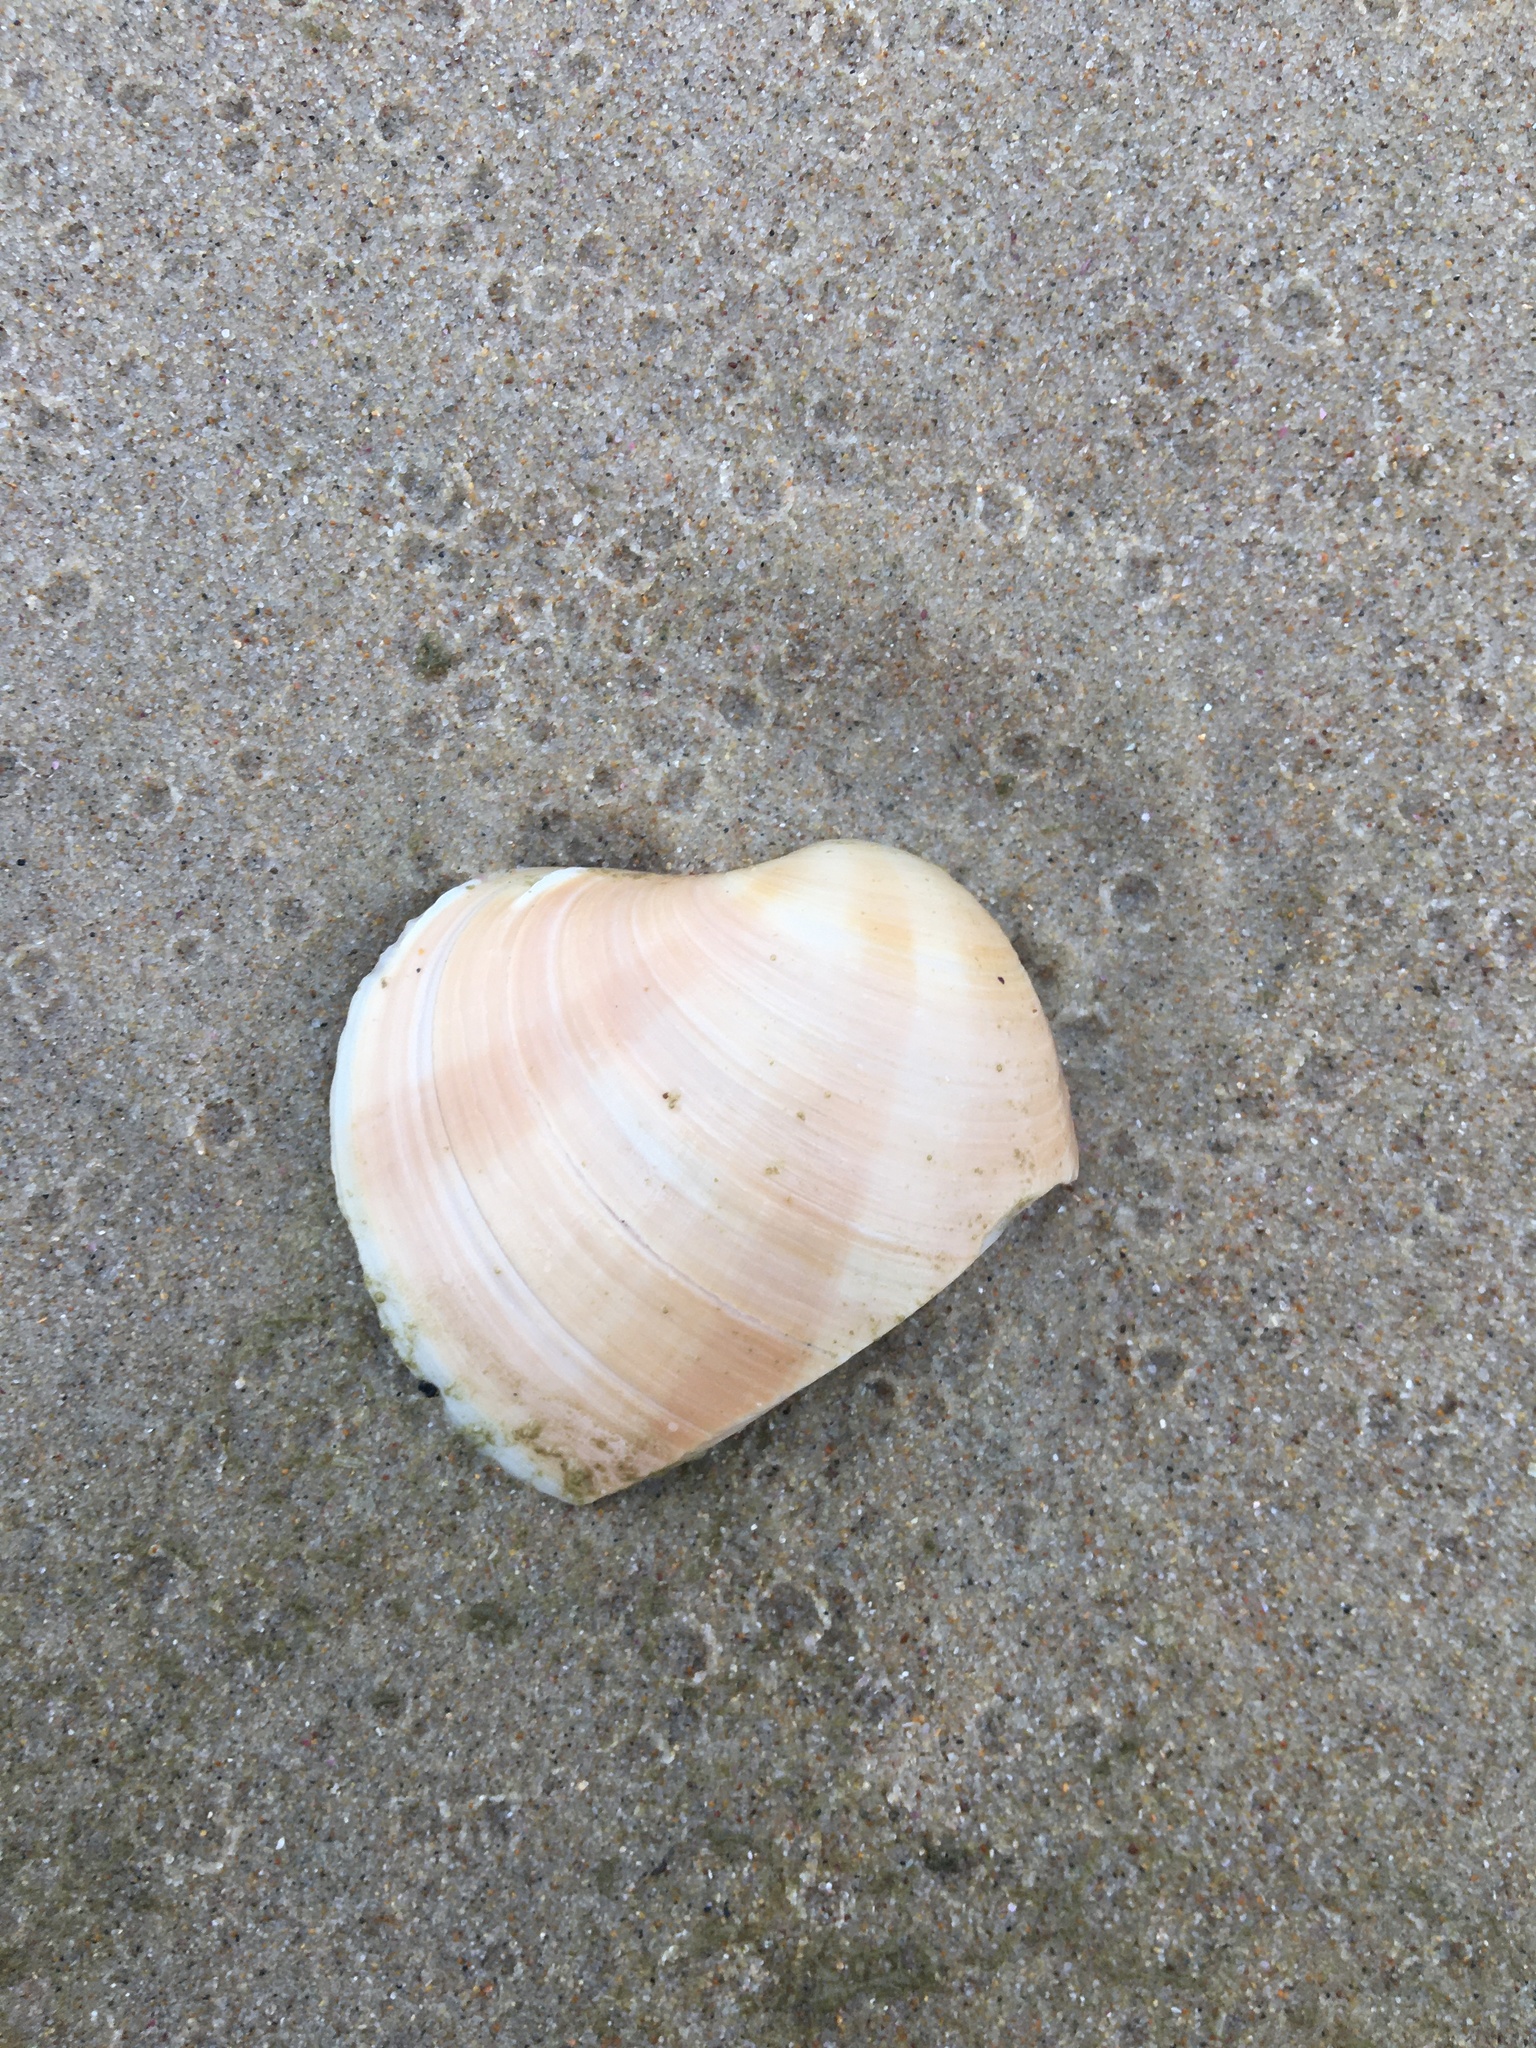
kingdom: Animalia
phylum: Mollusca
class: Bivalvia
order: Venerida
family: Veneridae
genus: Bassina
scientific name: Bassina pachyphylla
